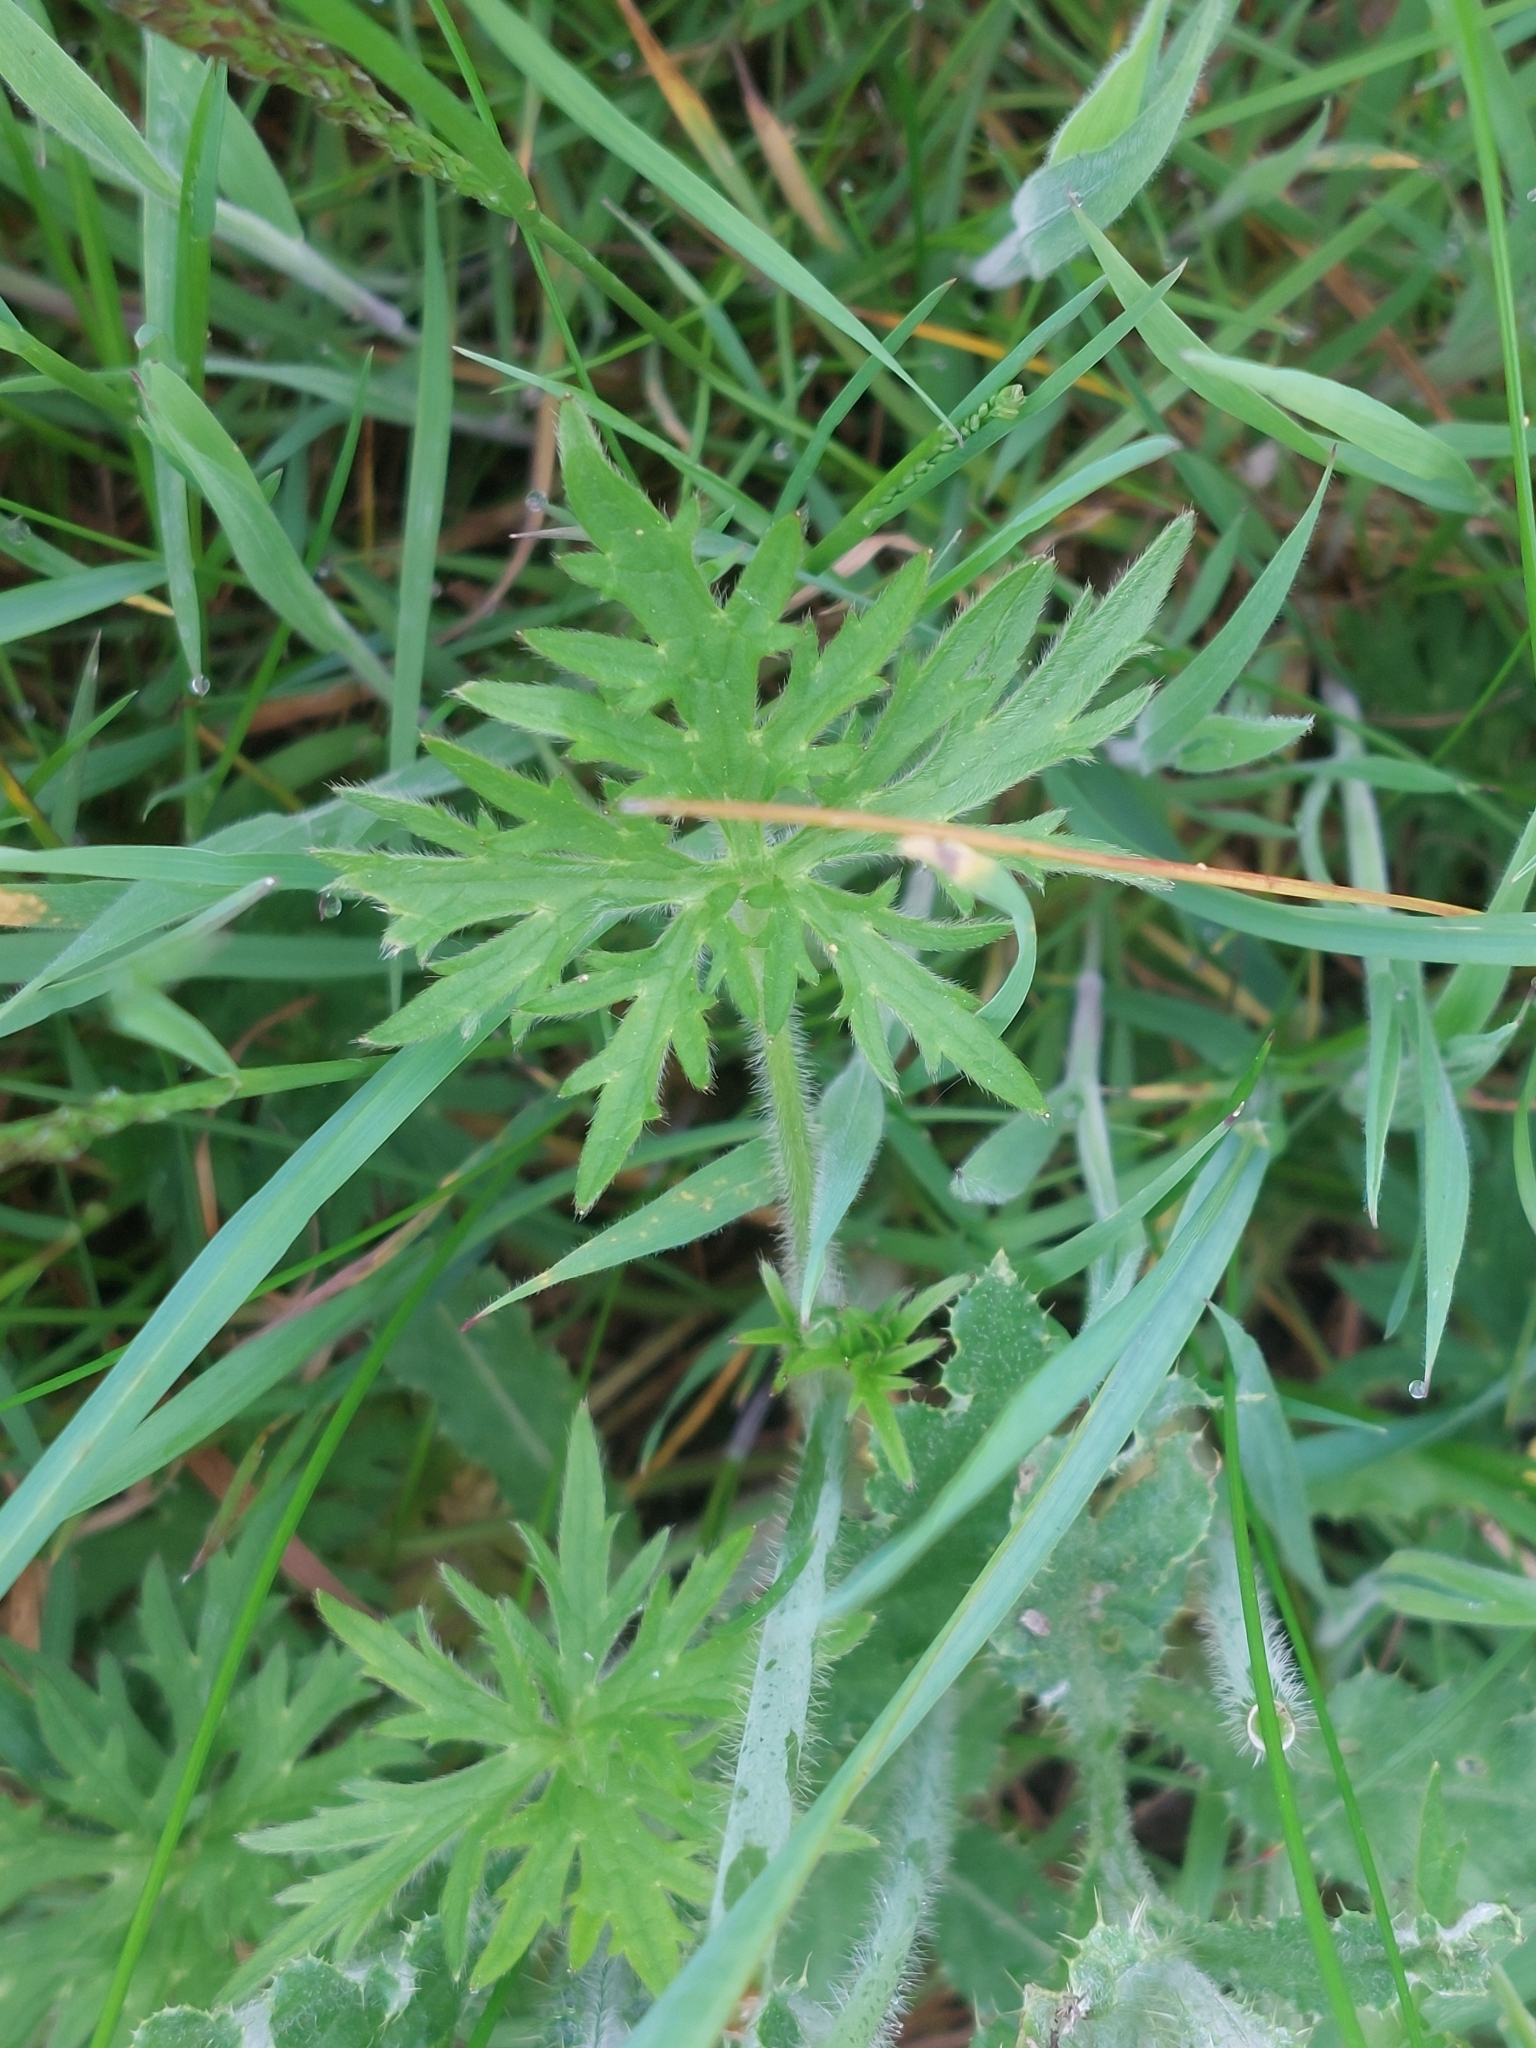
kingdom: Plantae
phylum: Tracheophyta
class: Magnoliopsida
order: Ranunculales
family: Ranunculaceae
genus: Ranunculus
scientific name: Ranunculus acris
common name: Meadow buttercup
